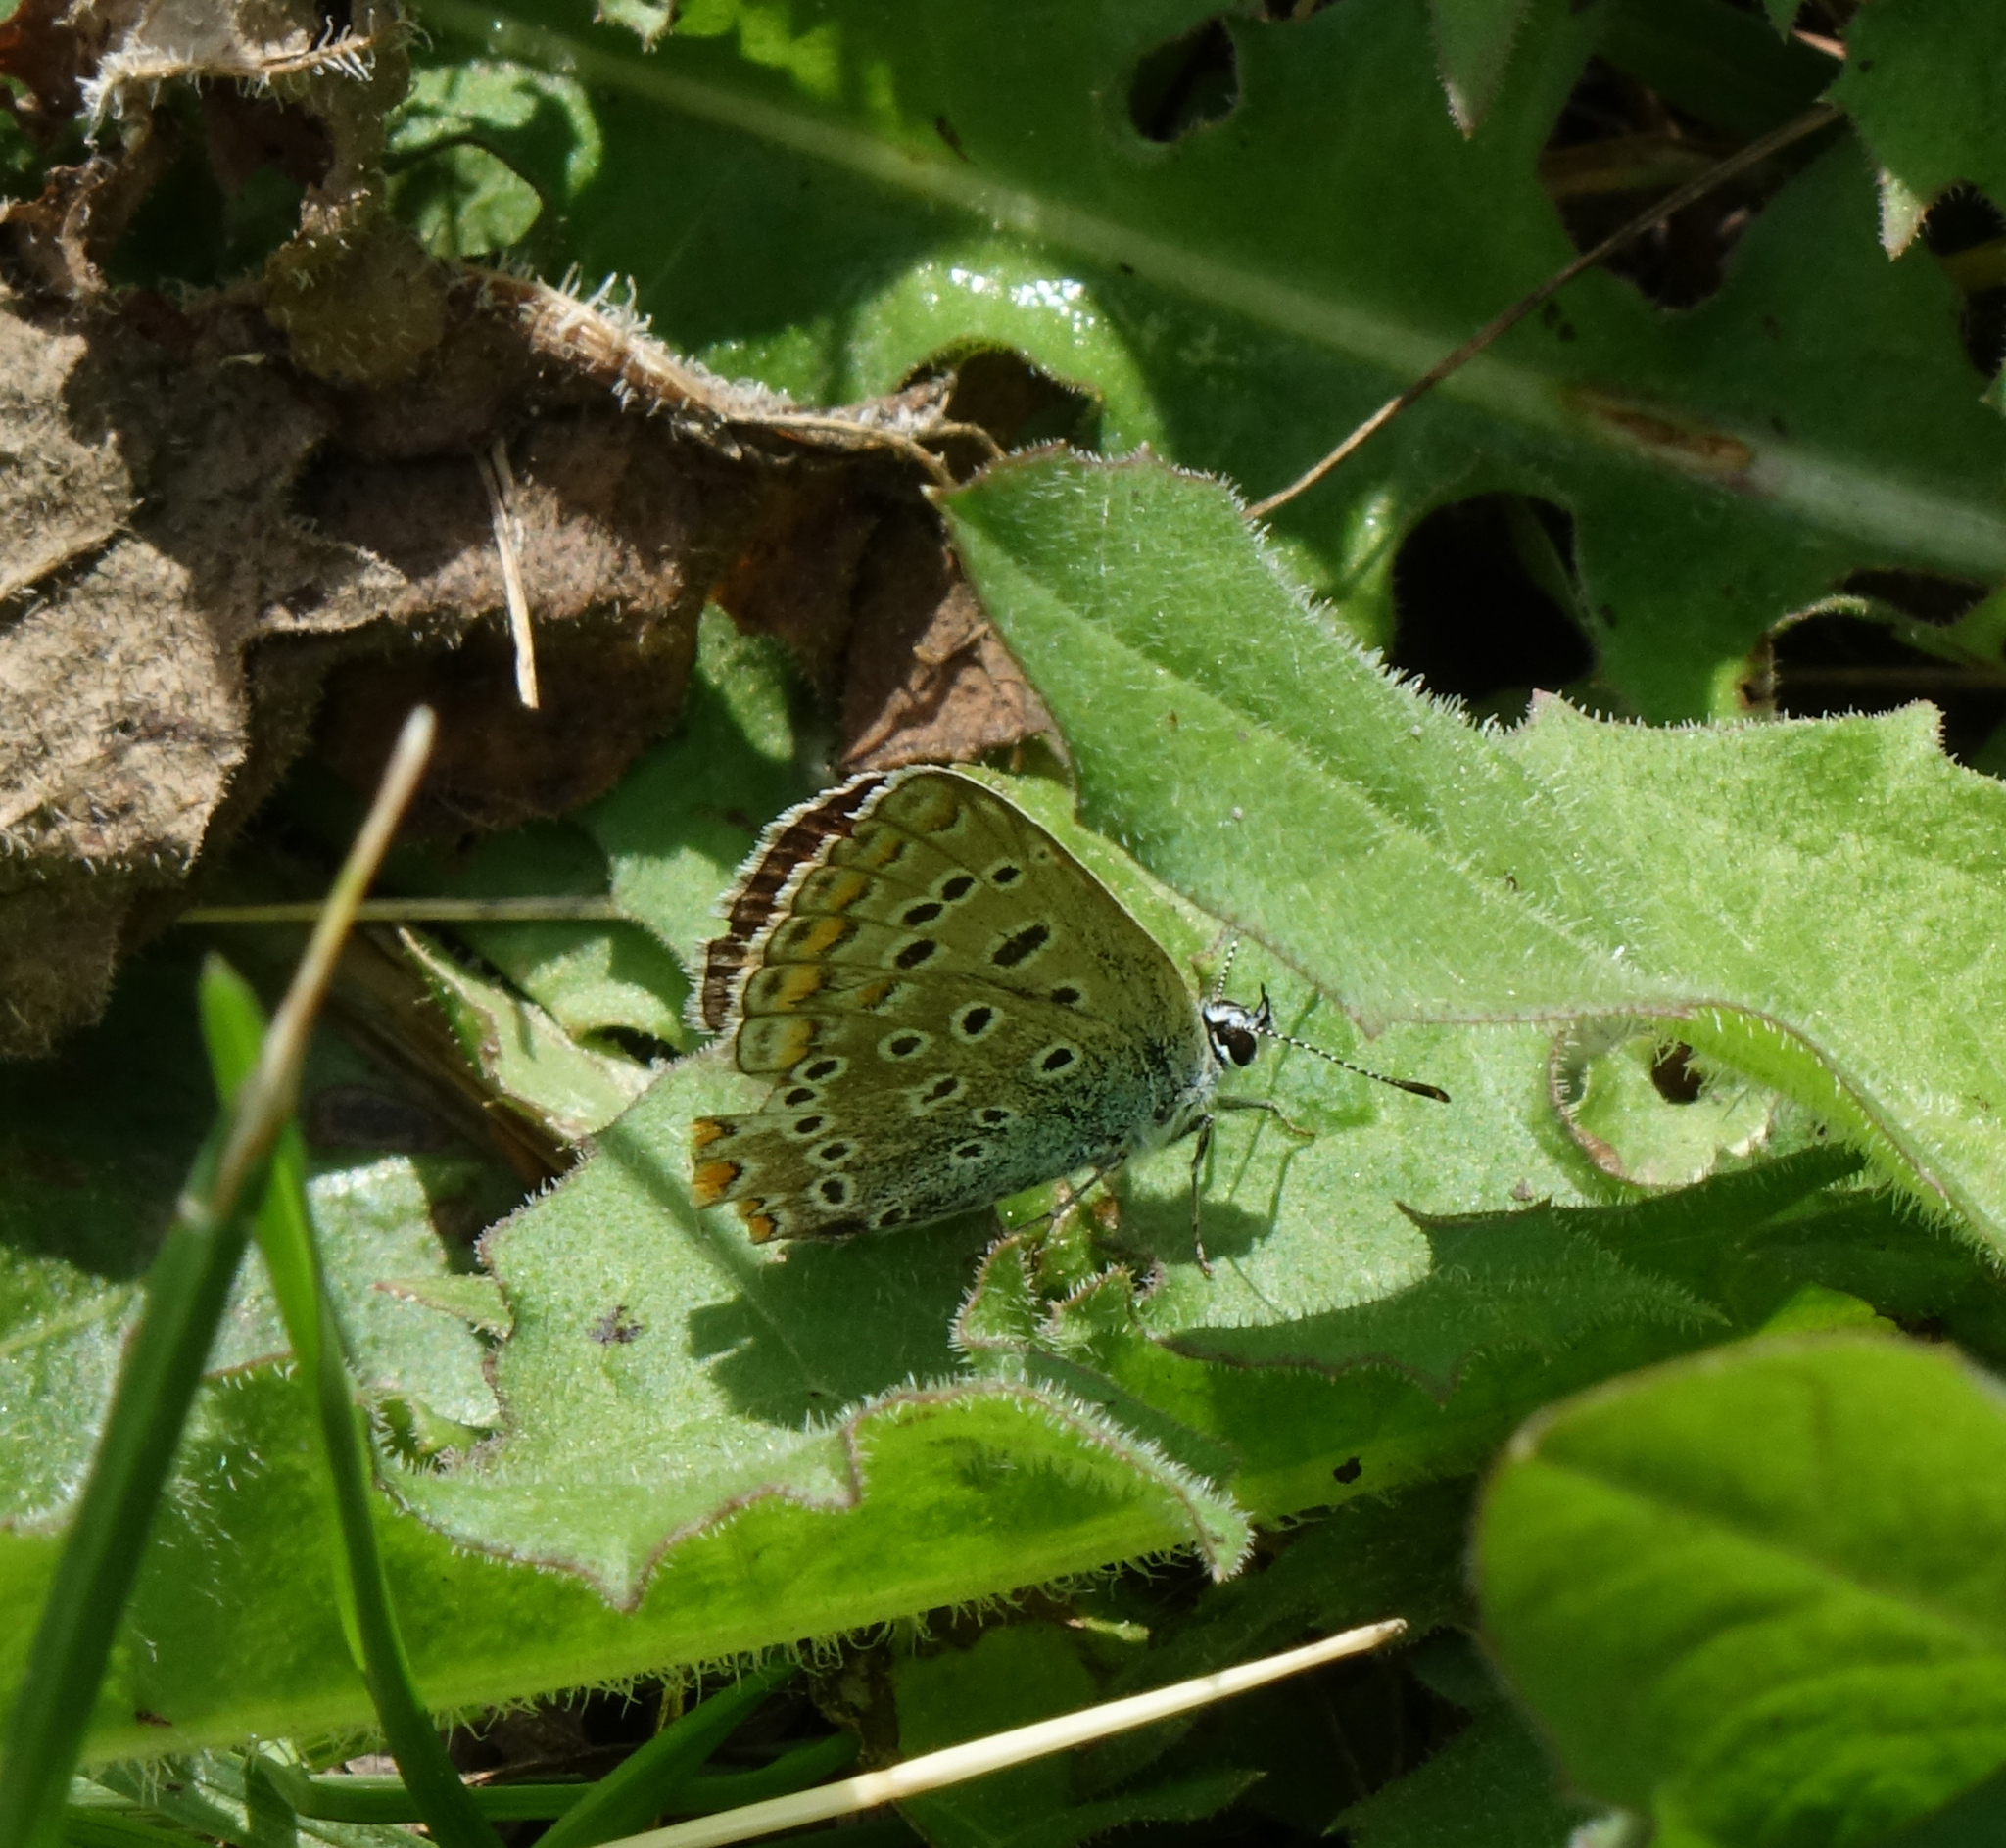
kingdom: Animalia
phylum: Arthropoda
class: Insecta
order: Lepidoptera
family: Lycaenidae
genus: Polyommatus
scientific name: Polyommatus icarus
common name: Common blue
